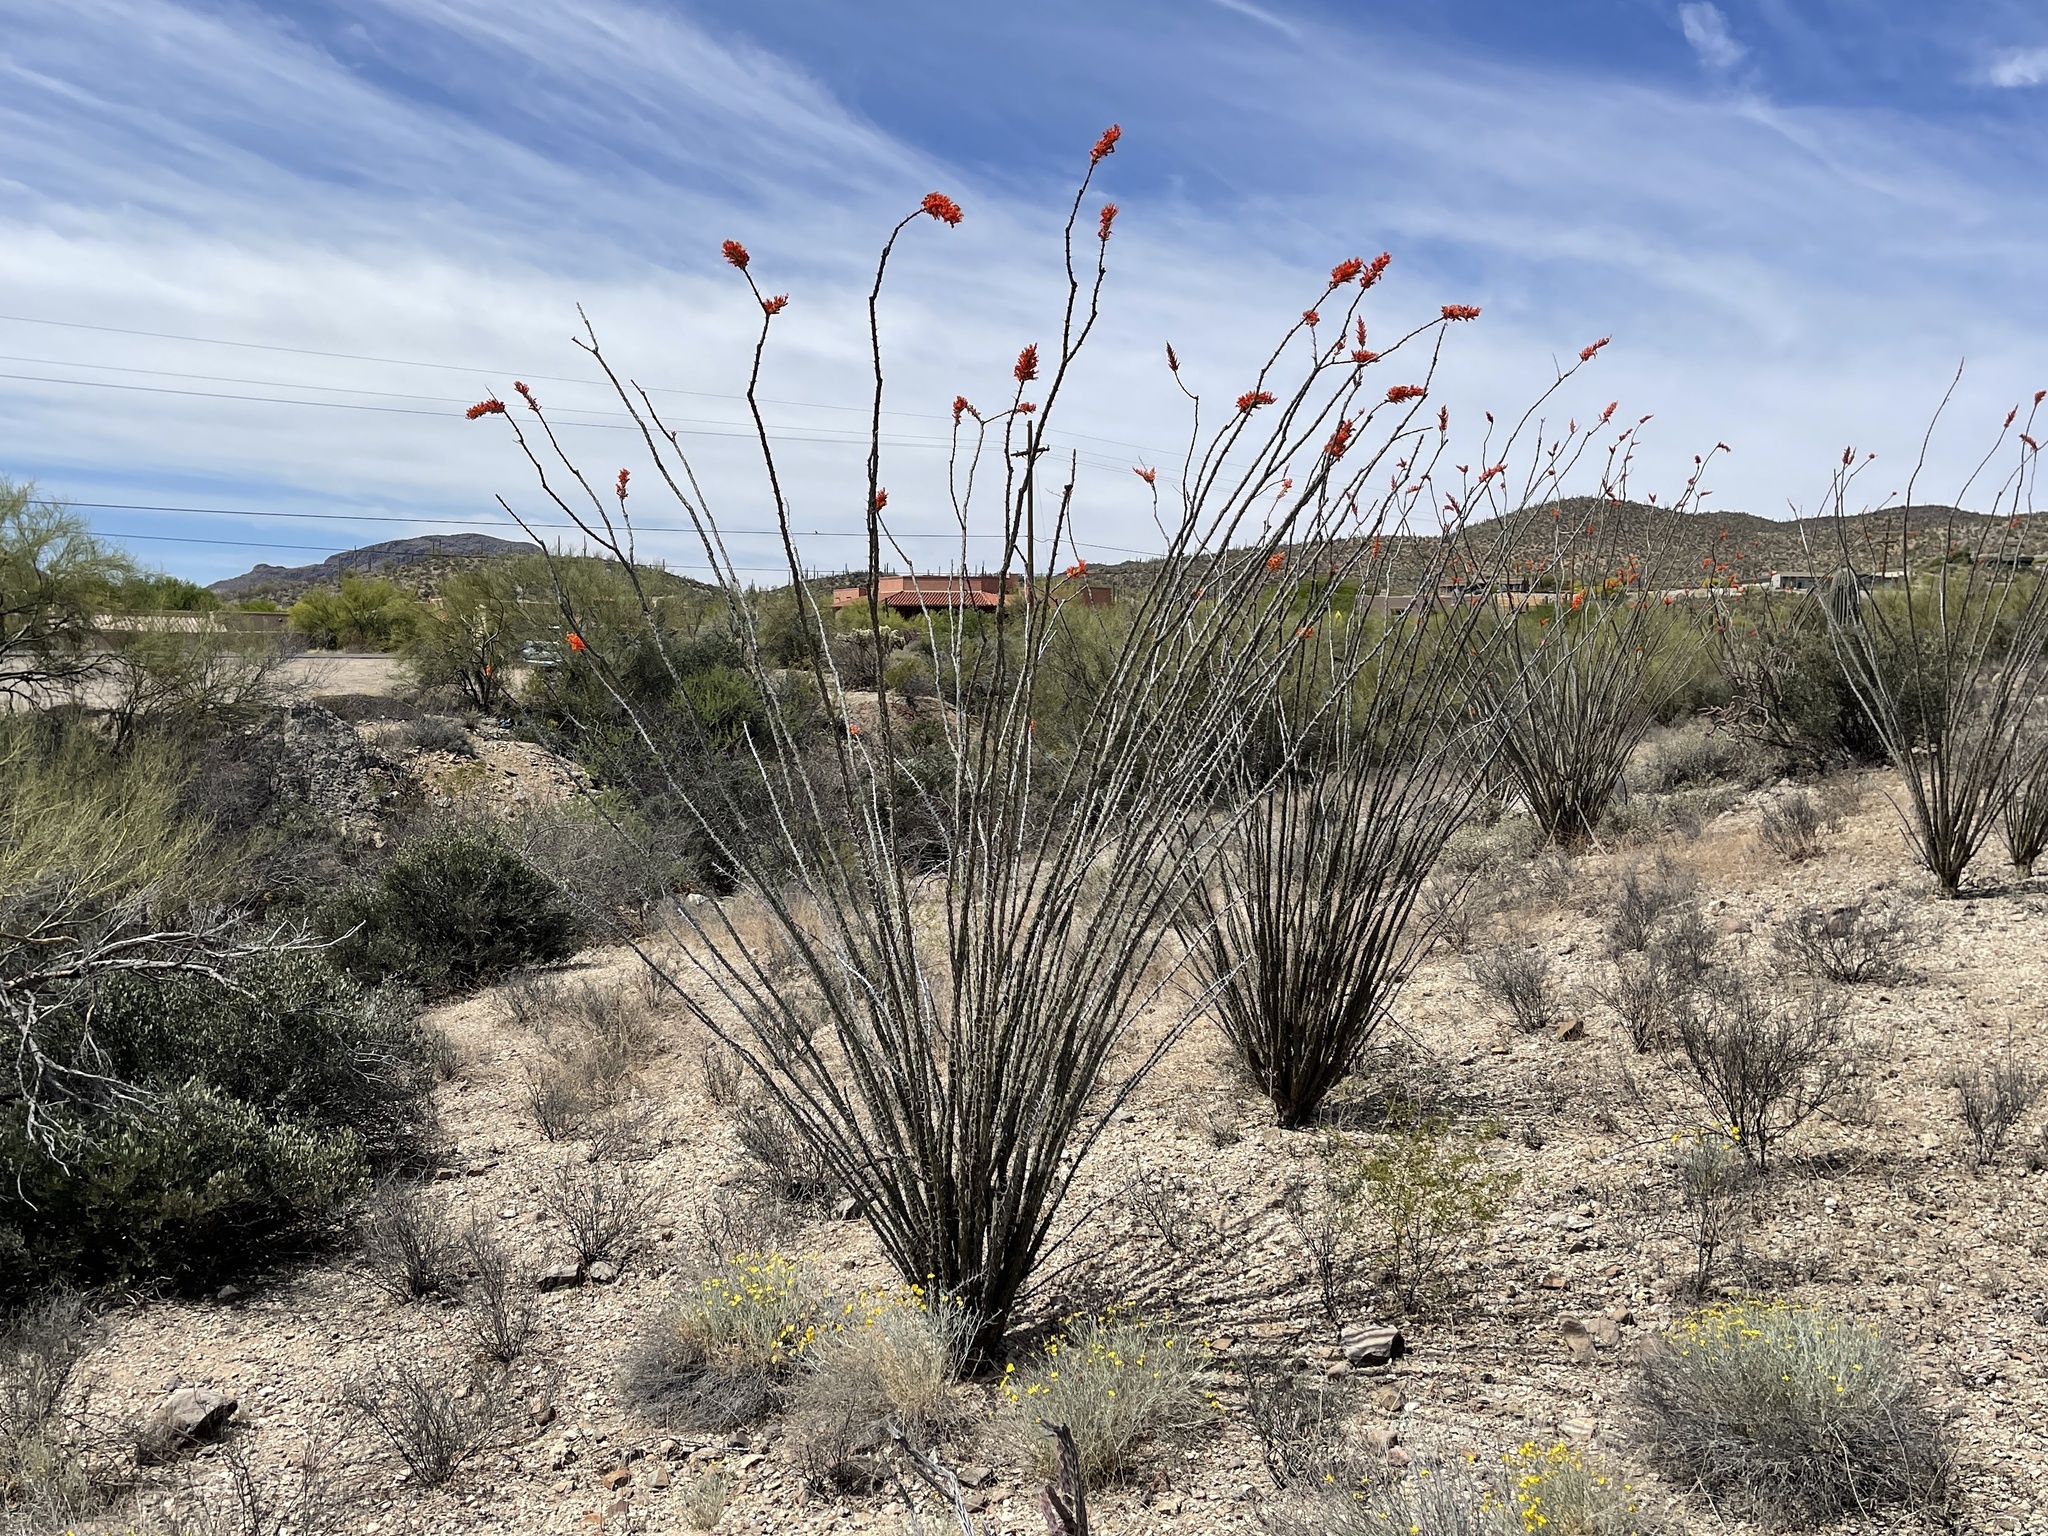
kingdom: Plantae
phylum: Tracheophyta
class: Magnoliopsida
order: Ericales
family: Fouquieriaceae
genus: Fouquieria
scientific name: Fouquieria splendens
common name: Vine-cactus
